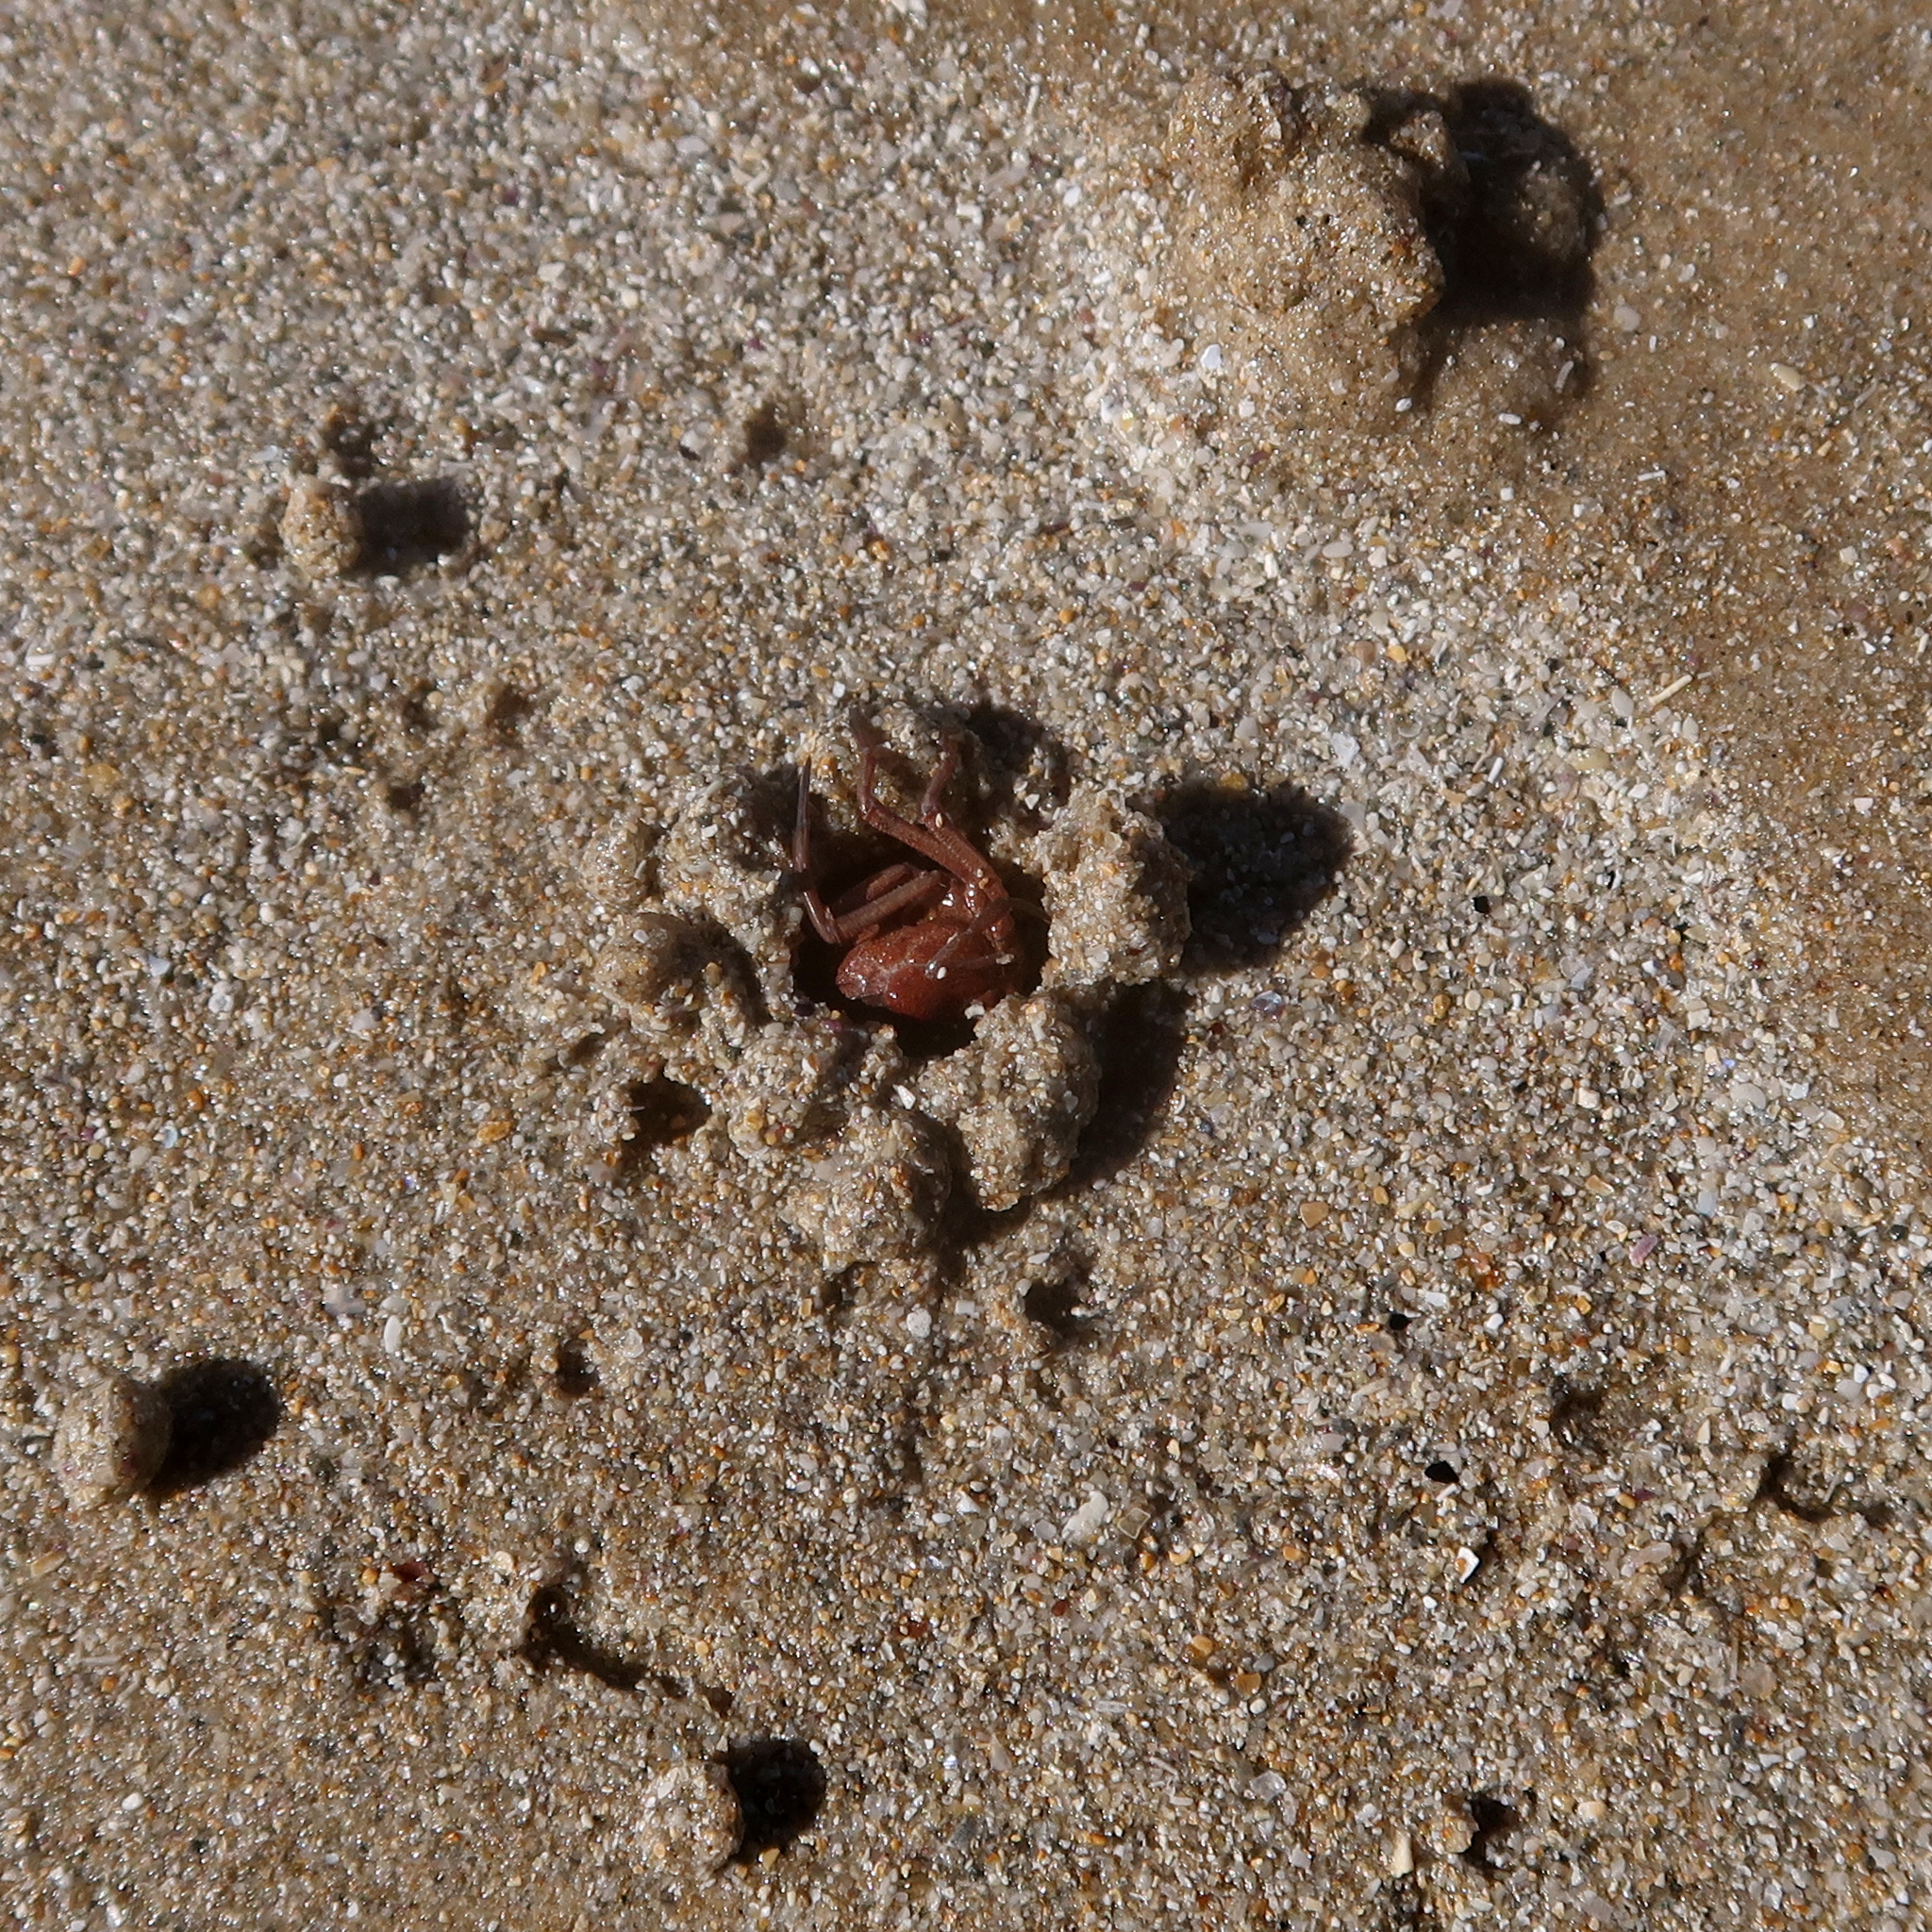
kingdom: Animalia
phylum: Arthropoda
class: Malacostraca
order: Decapoda
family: Mictyridae
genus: Mictyris
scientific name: Mictyris platycheles
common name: Dark blue soldier crab
